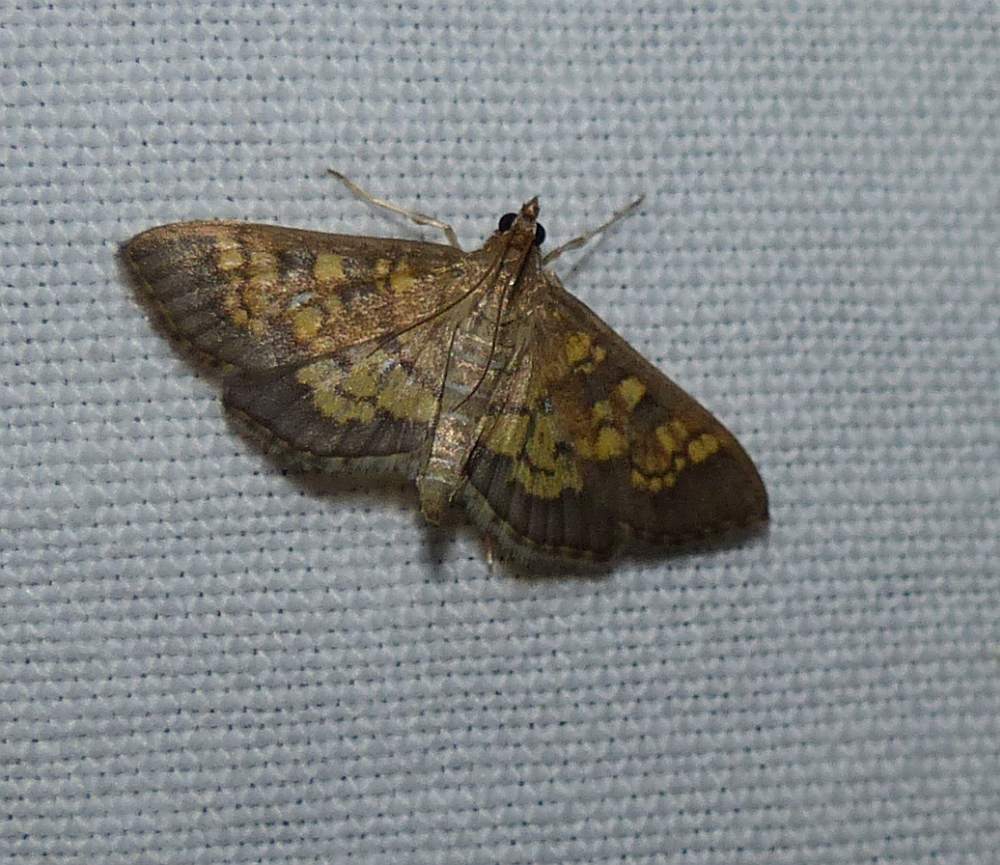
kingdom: Animalia
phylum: Arthropoda
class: Insecta
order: Lepidoptera
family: Crambidae
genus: Epipagis
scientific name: Epipagis adipaloides
